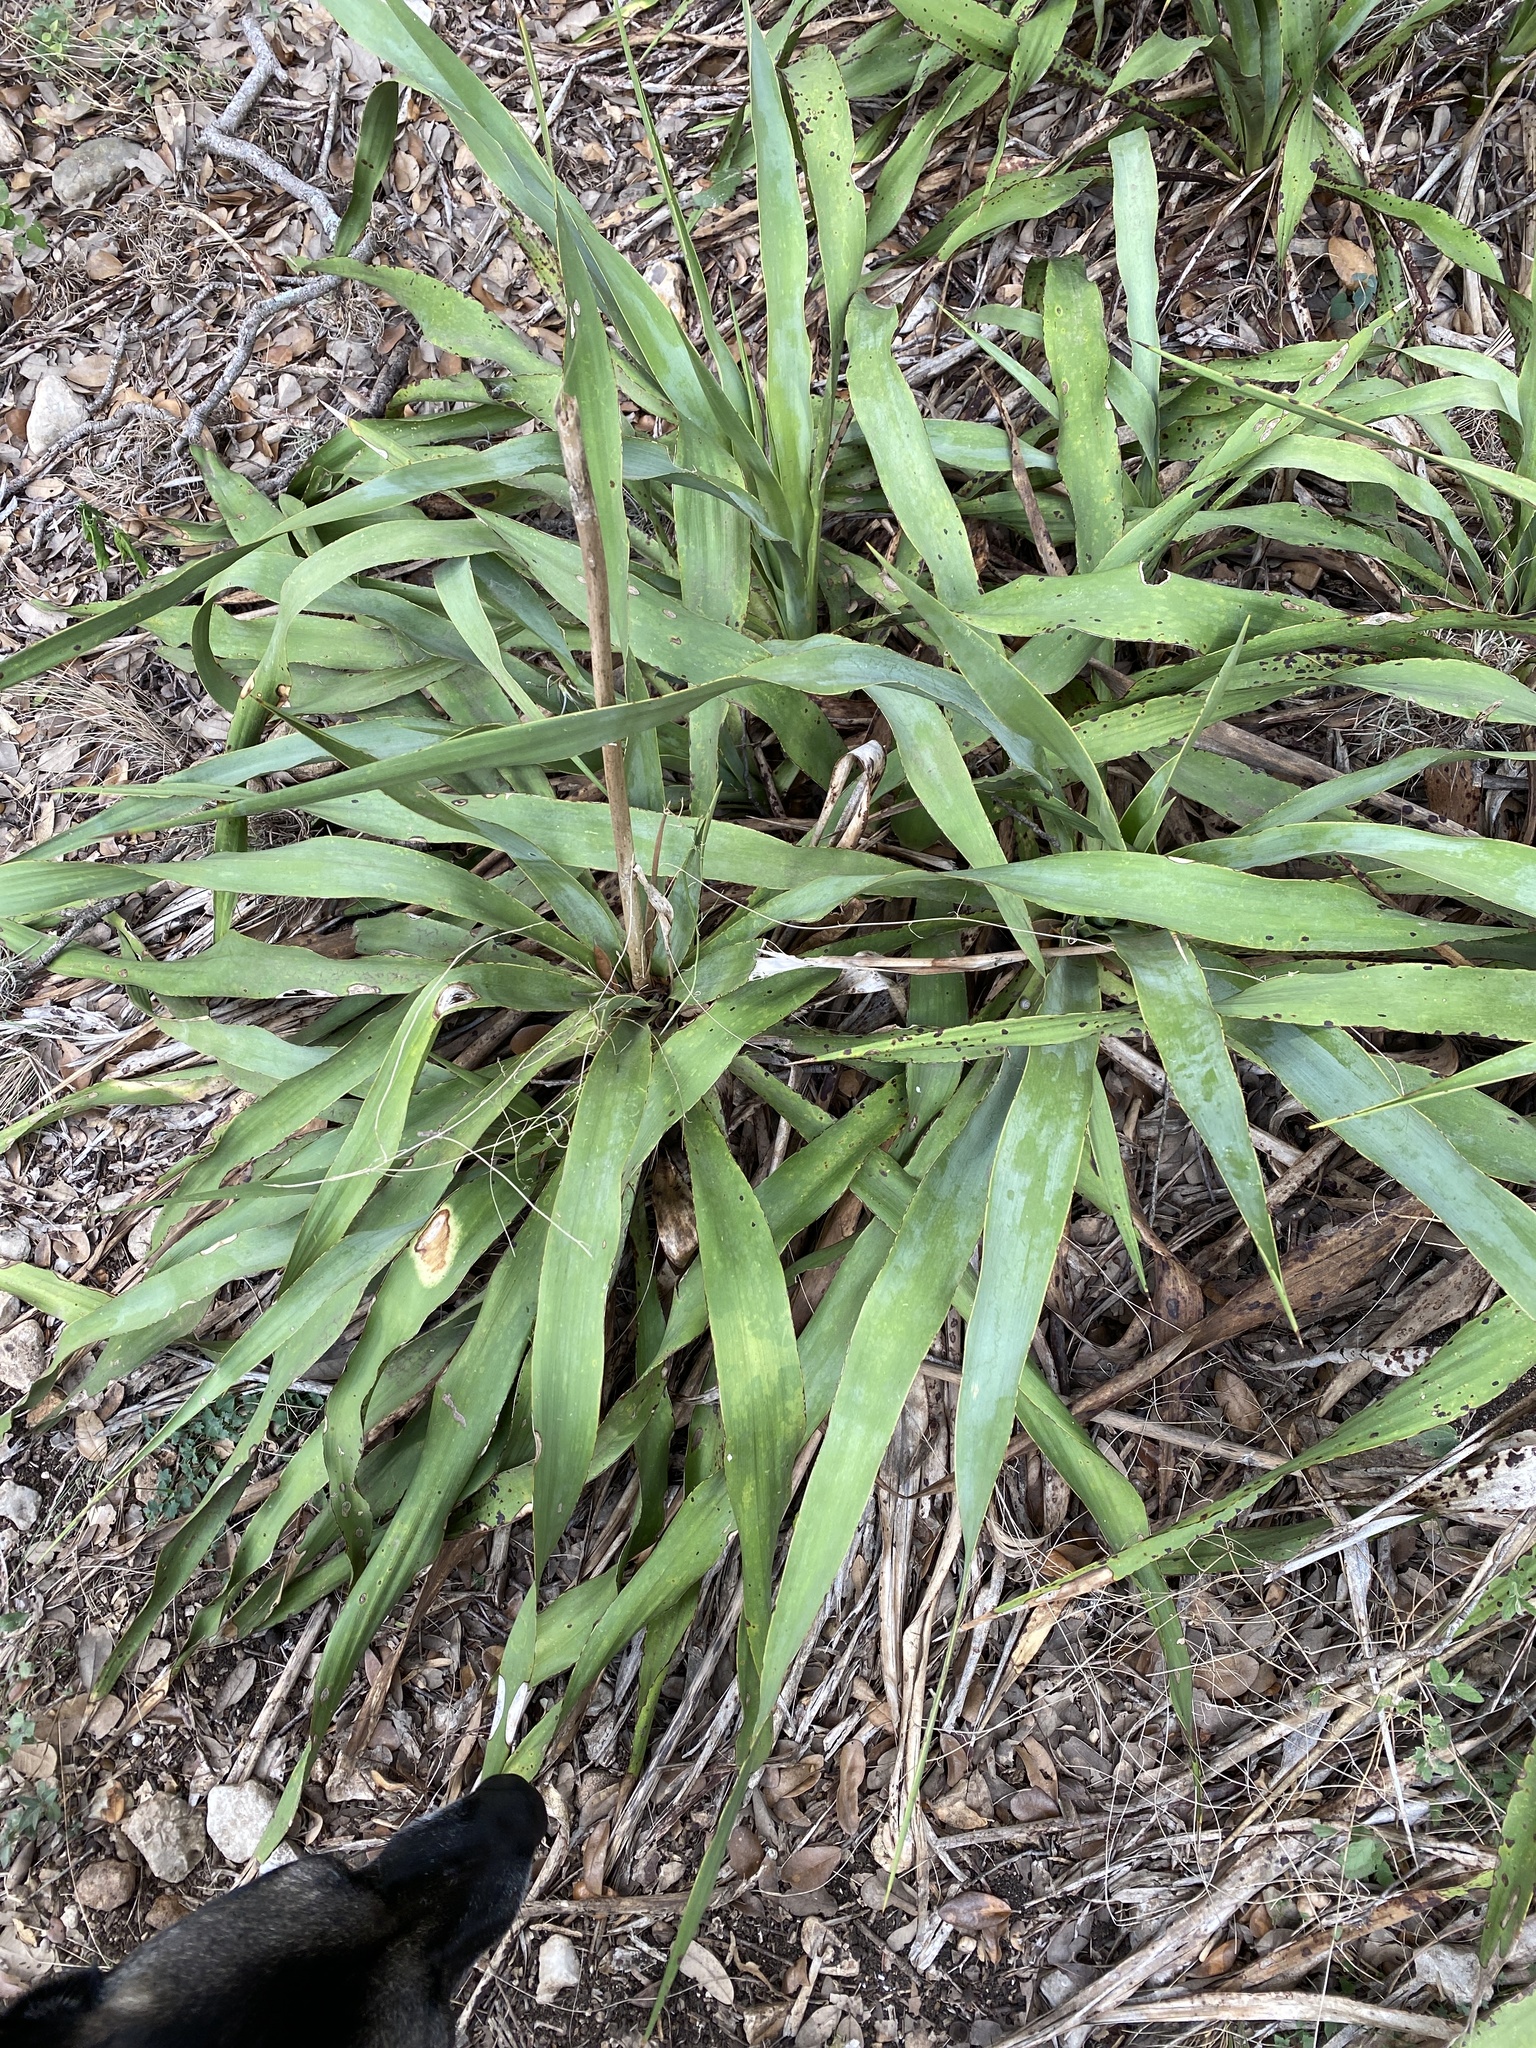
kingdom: Plantae
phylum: Tracheophyta
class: Liliopsida
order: Asparagales
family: Asparagaceae
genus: Yucca
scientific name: Yucca rupicola
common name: Twisted-leaf spanish-dagger
